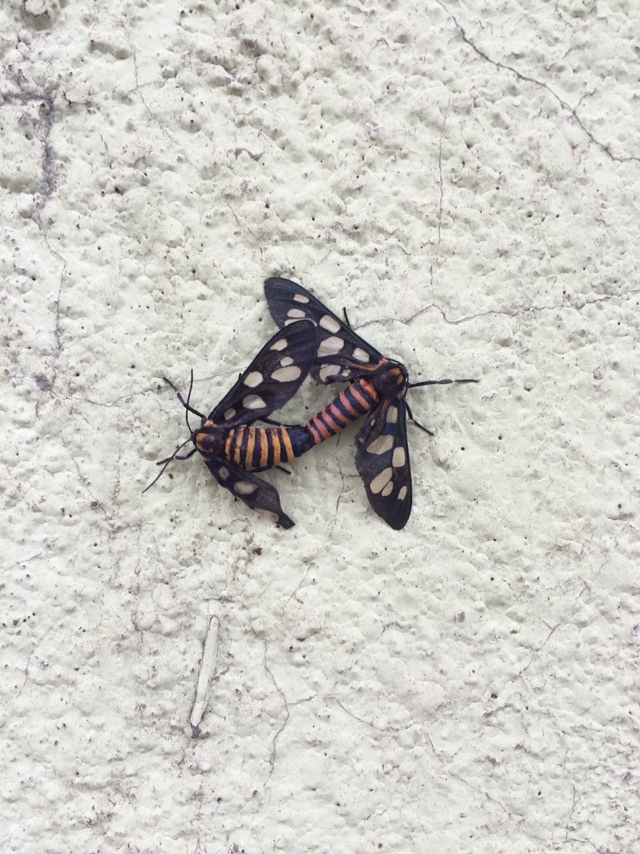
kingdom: Animalia
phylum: Arthropoda
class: Insecta
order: Lepidoptera
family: Erebidae
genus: Amata
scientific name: Amata passalis
